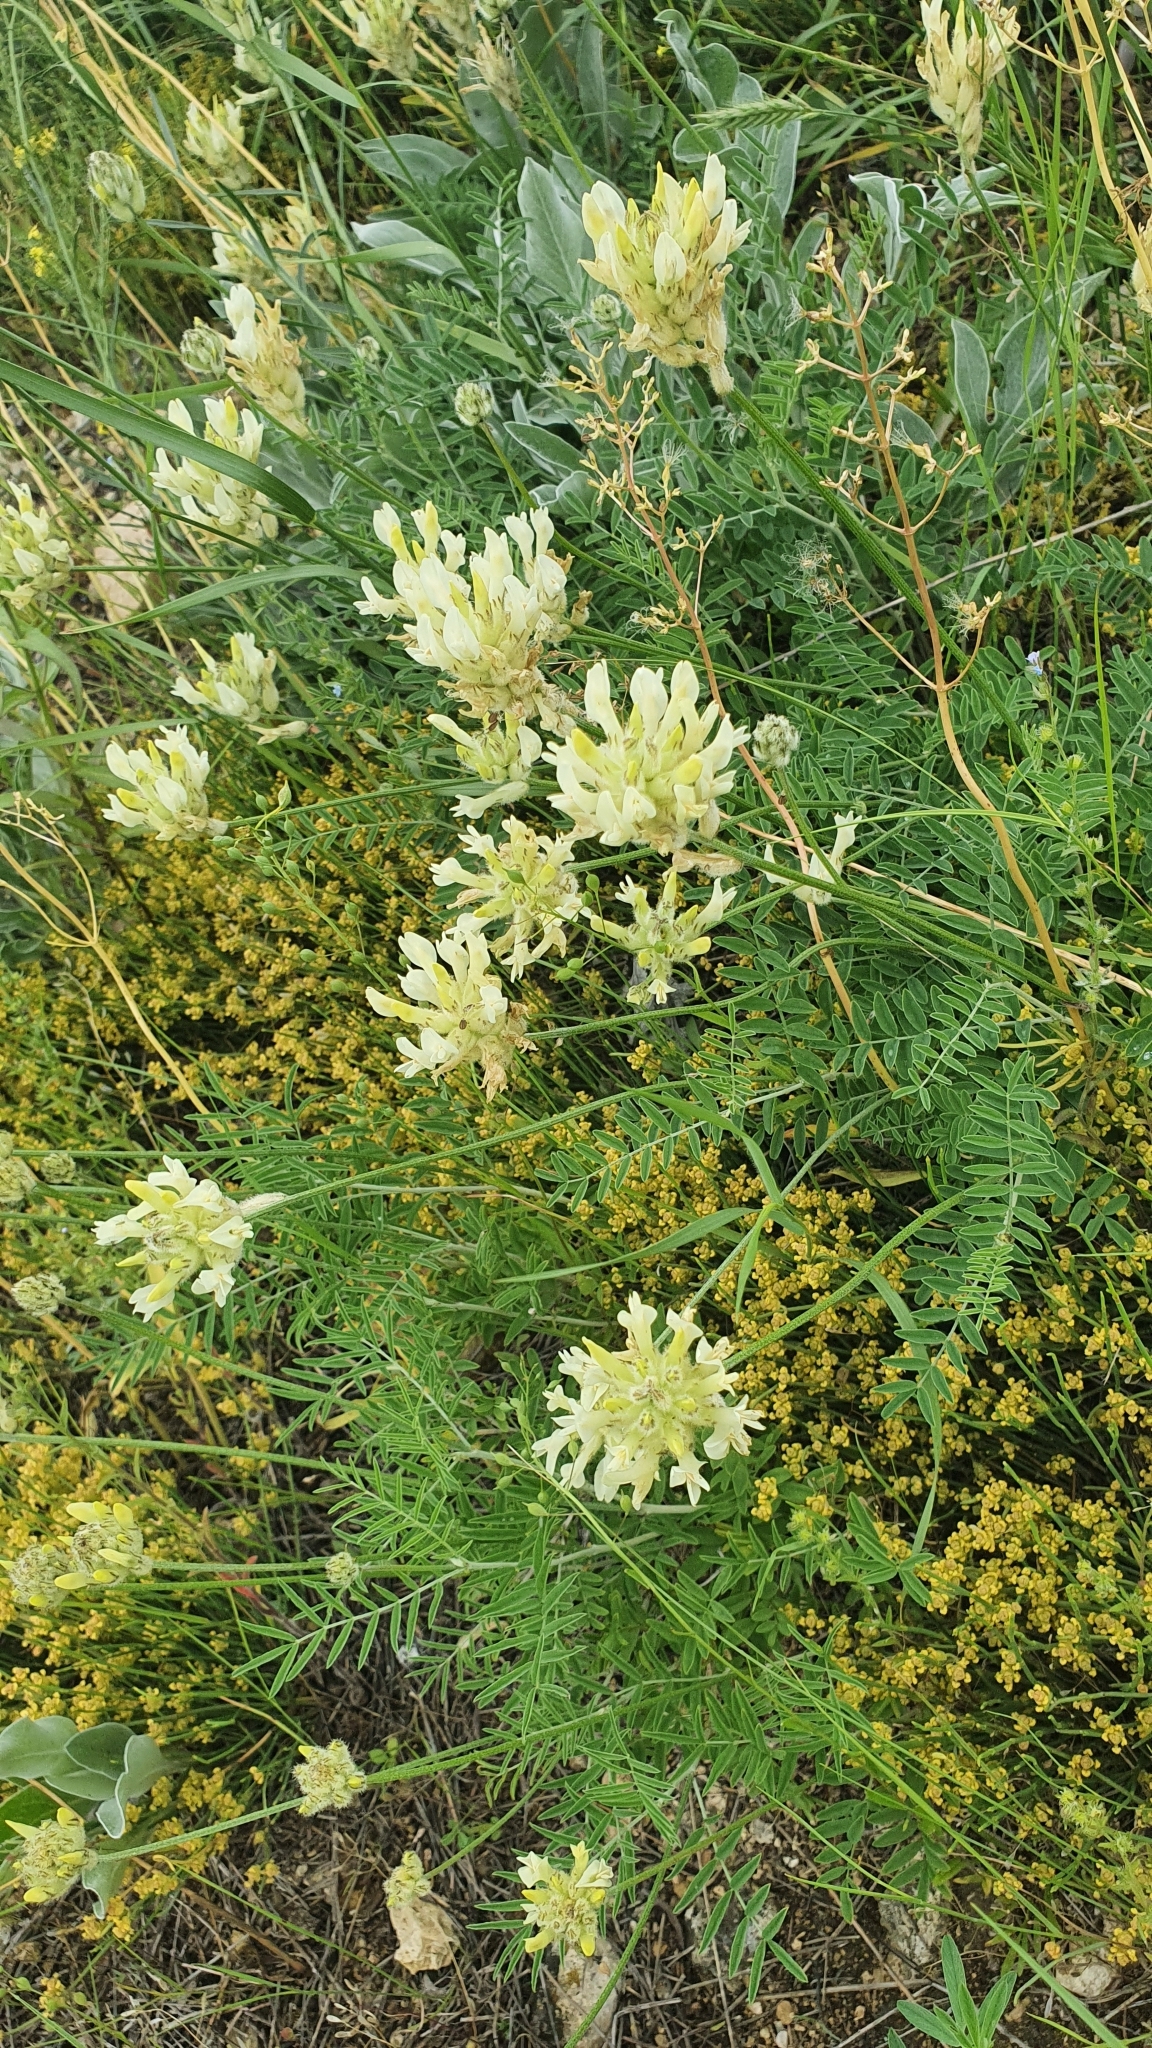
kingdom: Plantae
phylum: Tracheophyta
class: Magnoliopsida
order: Fabales
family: Fabaceae
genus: Astragalus
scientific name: Astragalus zingeri
